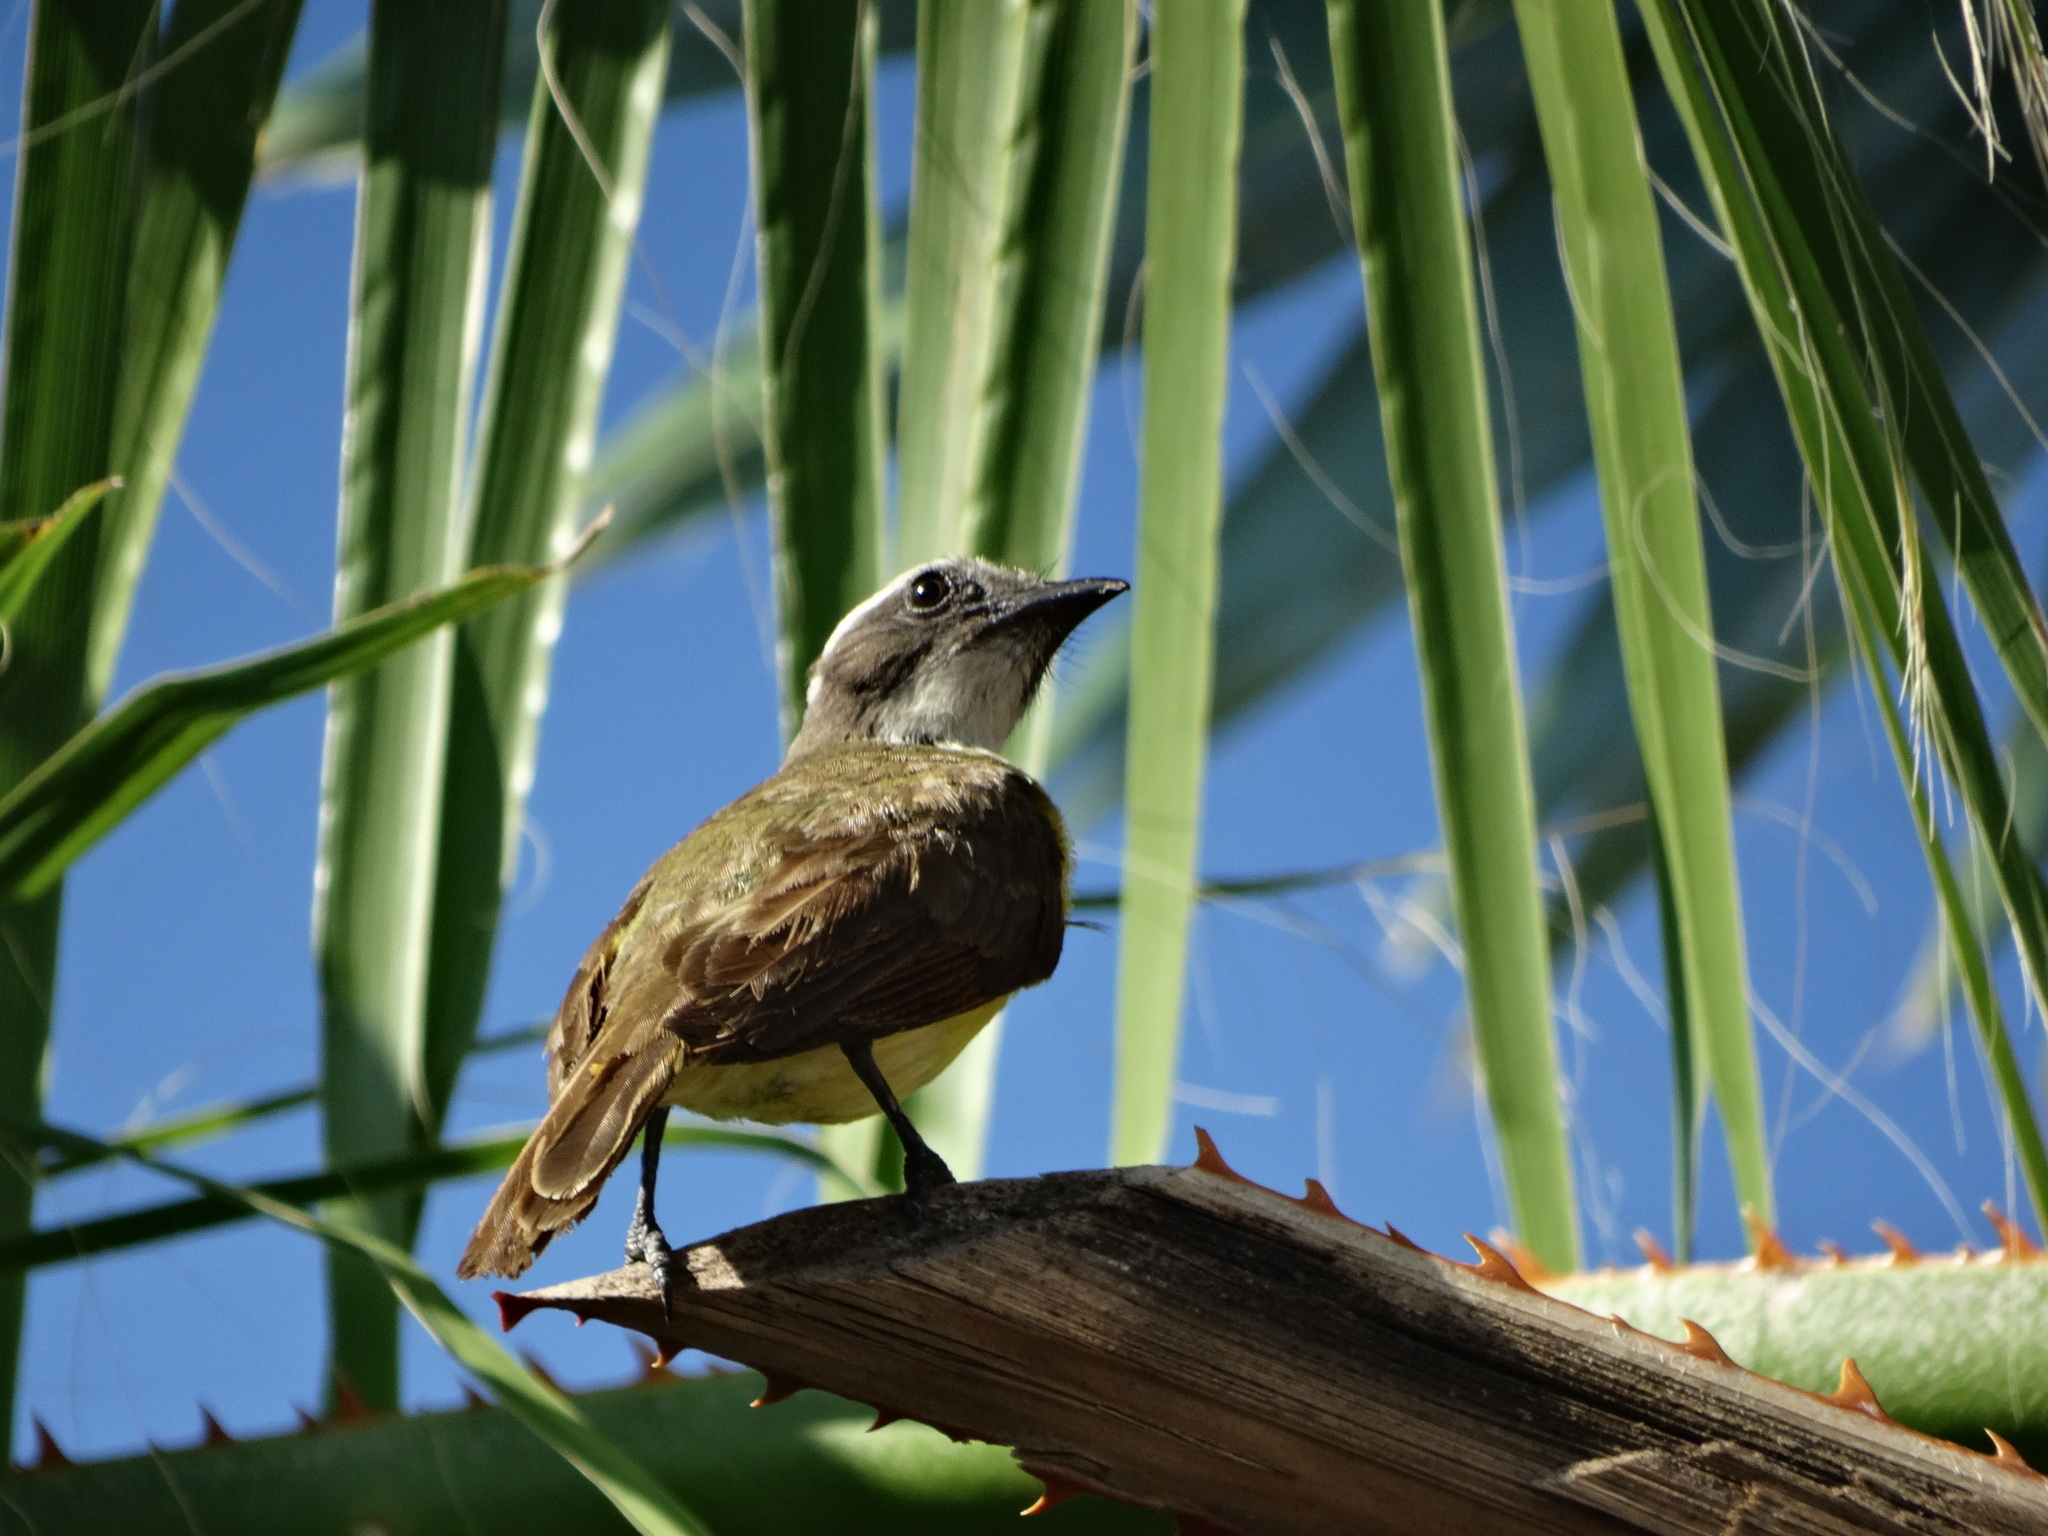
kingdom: Animalia
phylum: Chordata
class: Aves
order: Passeriformes
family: Tyrannidae
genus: Myiozetetes
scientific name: Myiozetetes similis
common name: Social flycatcher
